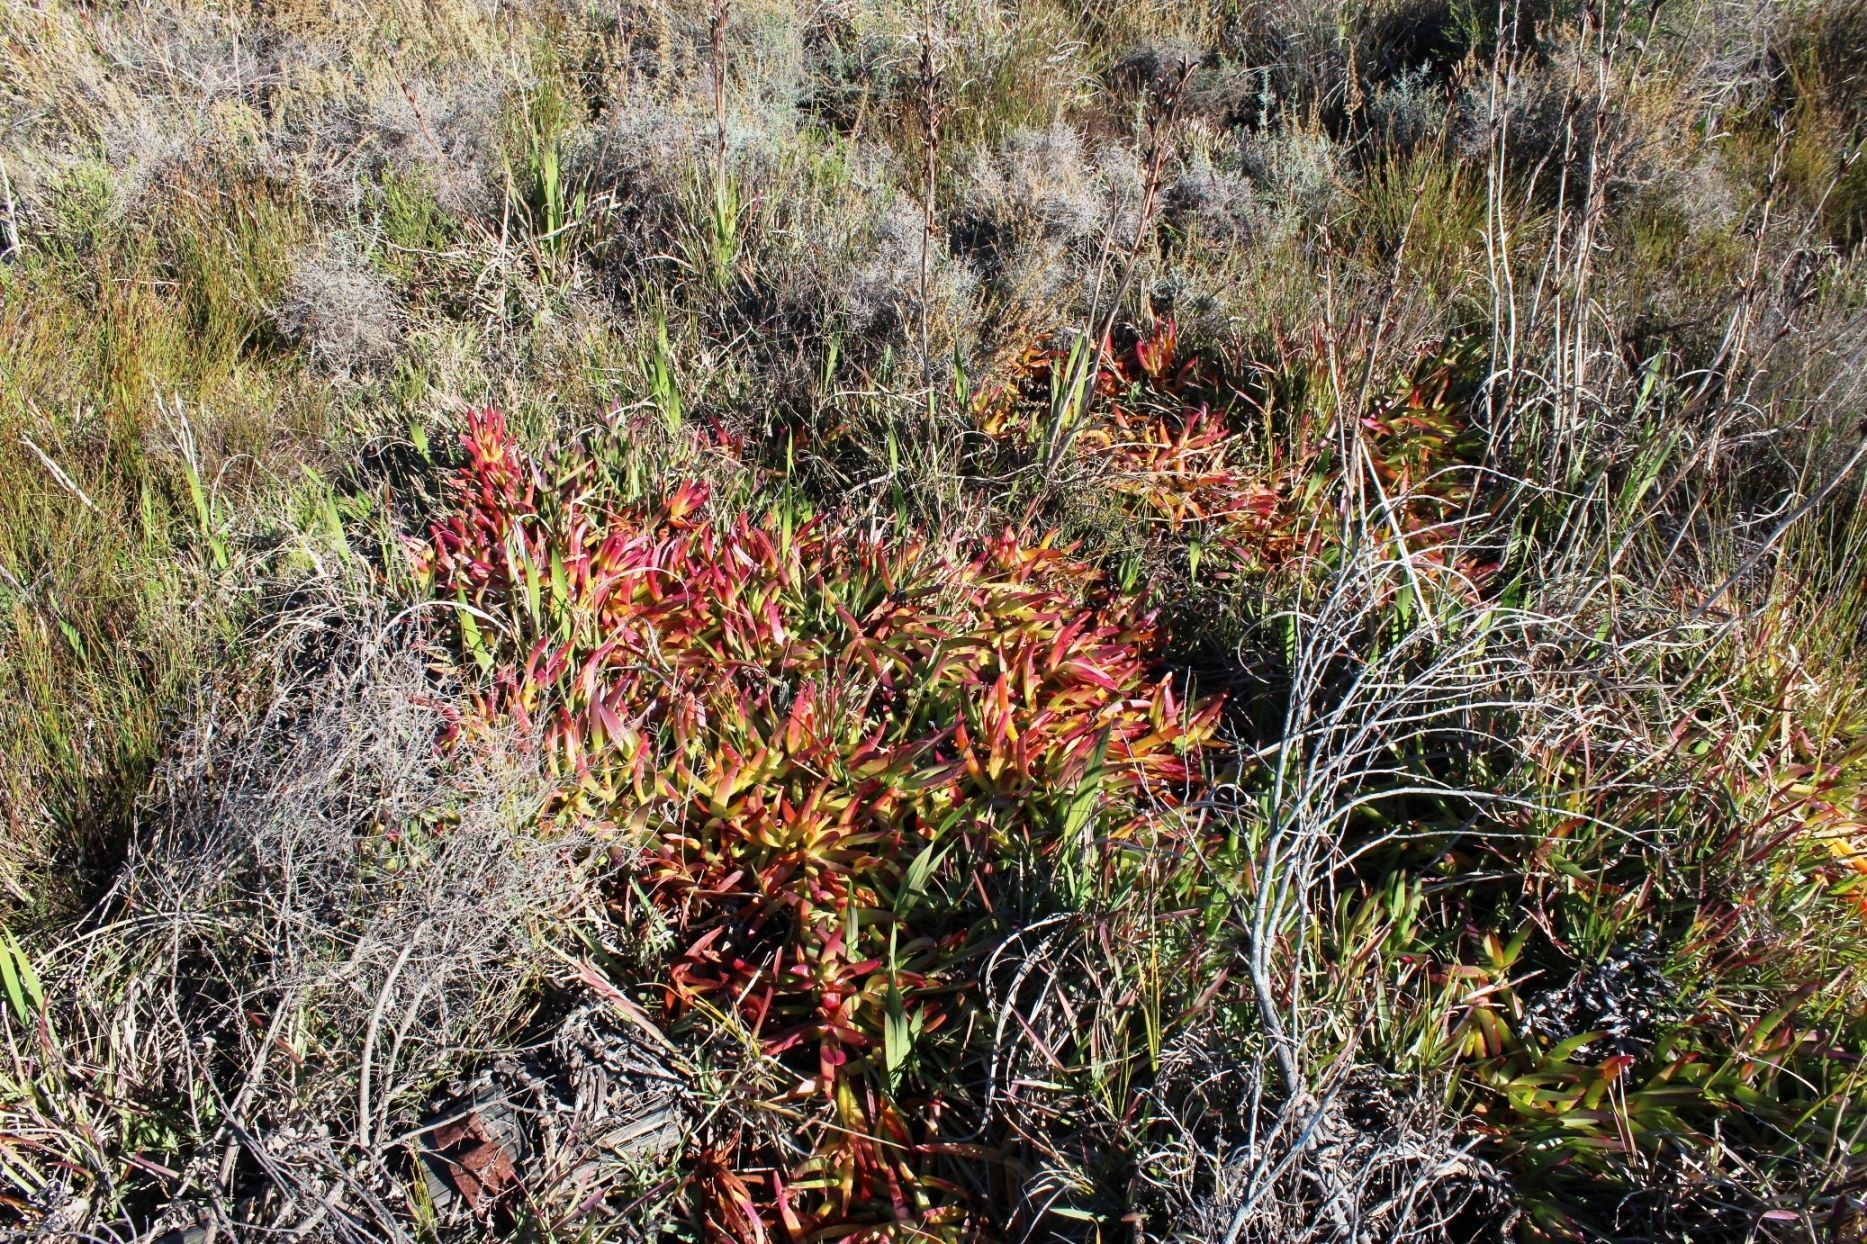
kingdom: Plantae
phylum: Tracheophyta
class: Magnoliopsida
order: Caryophyllales
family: Aizoaceae
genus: Carpobrotus
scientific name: Carpobrotus edulis
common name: Hottentot-fig
